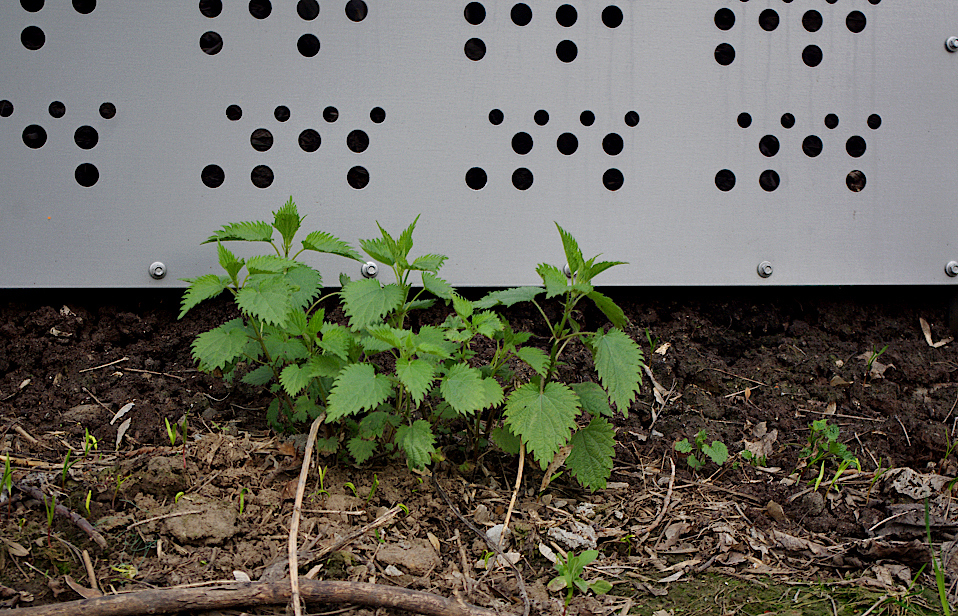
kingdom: Plantae
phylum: Tracheophyta
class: Magnoliopsida
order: Rosales
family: Urticaceae
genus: Urtica
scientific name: Urtica dioica
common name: Common nettle
